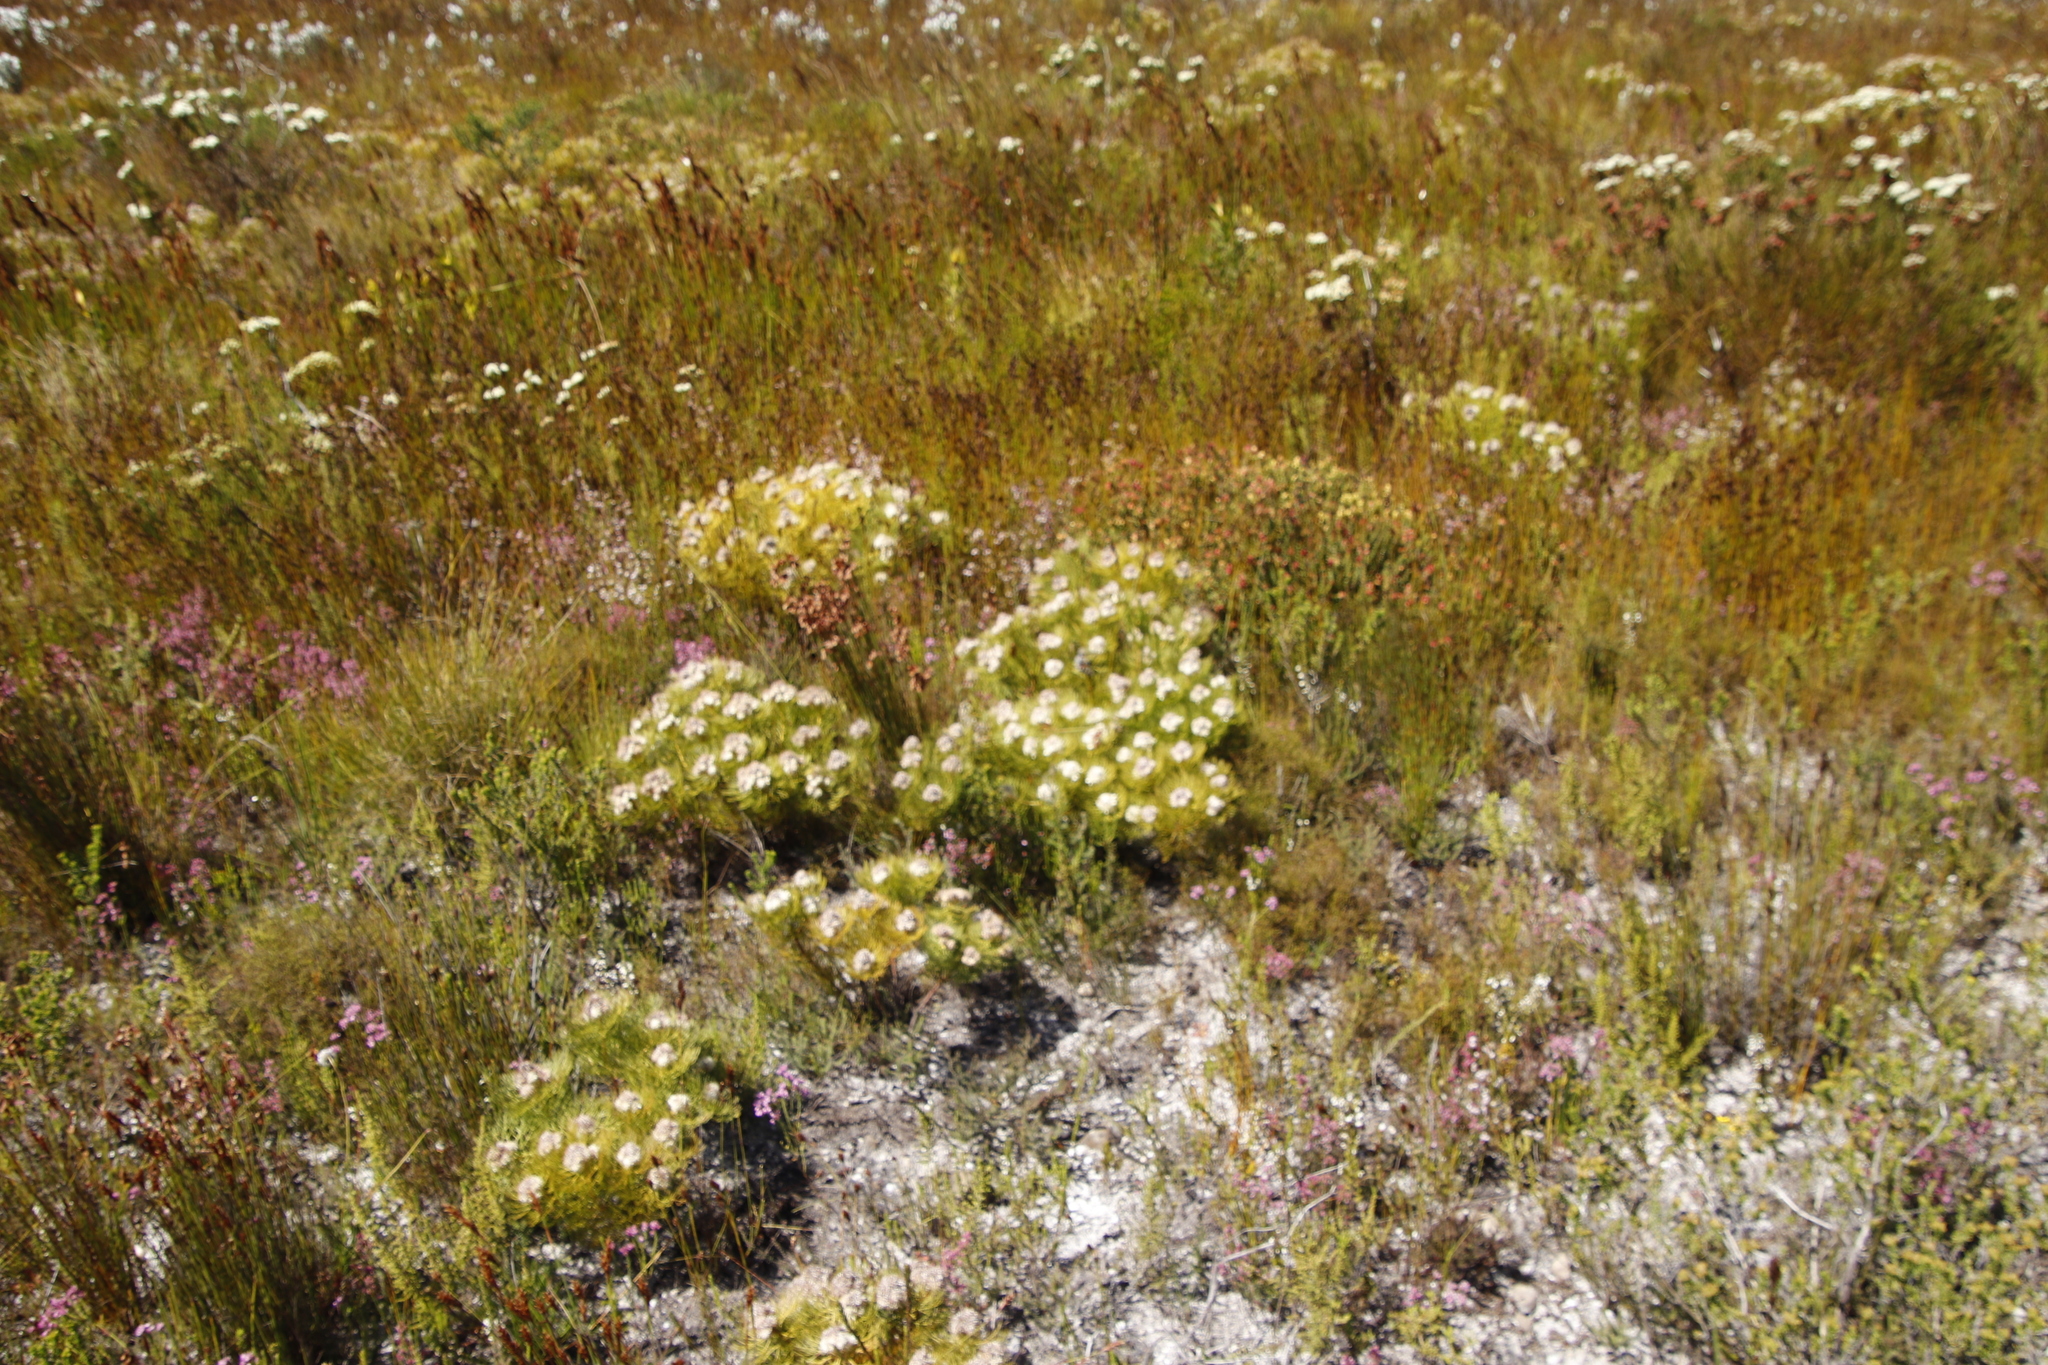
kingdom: Plantae
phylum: Tracheophyta
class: Magnoliopsida
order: Proteales
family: Proteaceae
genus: Serruria
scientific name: Serruria glomerata
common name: Cluster spiderhead
